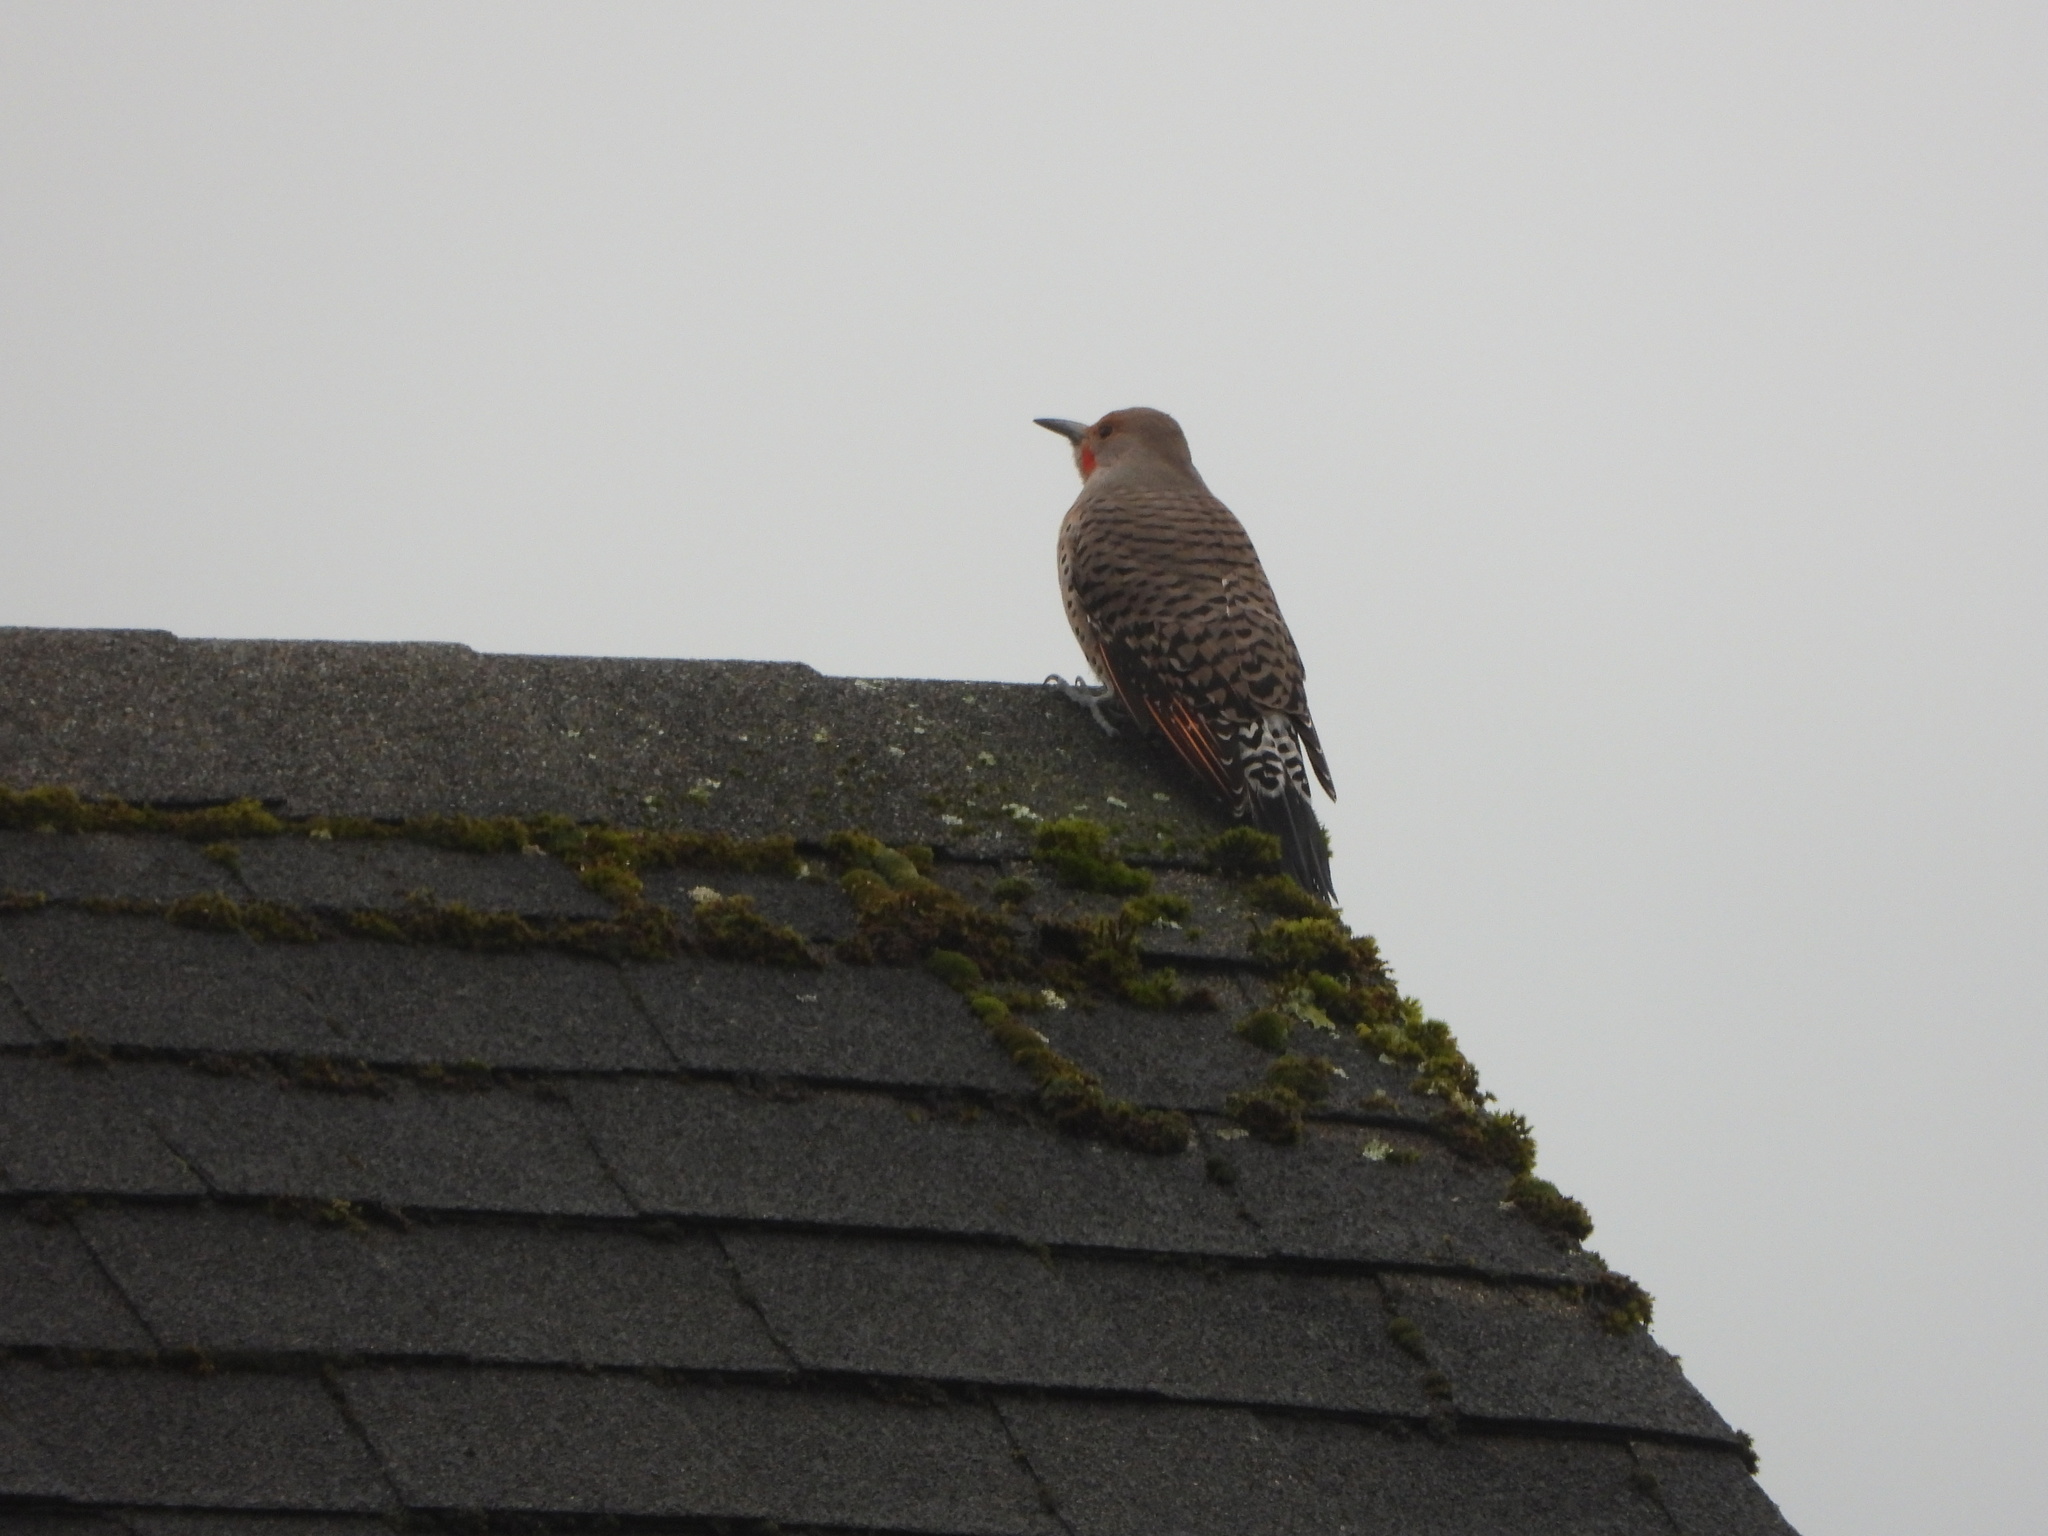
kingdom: Animalia
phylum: Chordata
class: Aves
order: Piciformes
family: Picidae
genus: Colaptes
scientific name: Colaptes auratus
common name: Northern flicker
